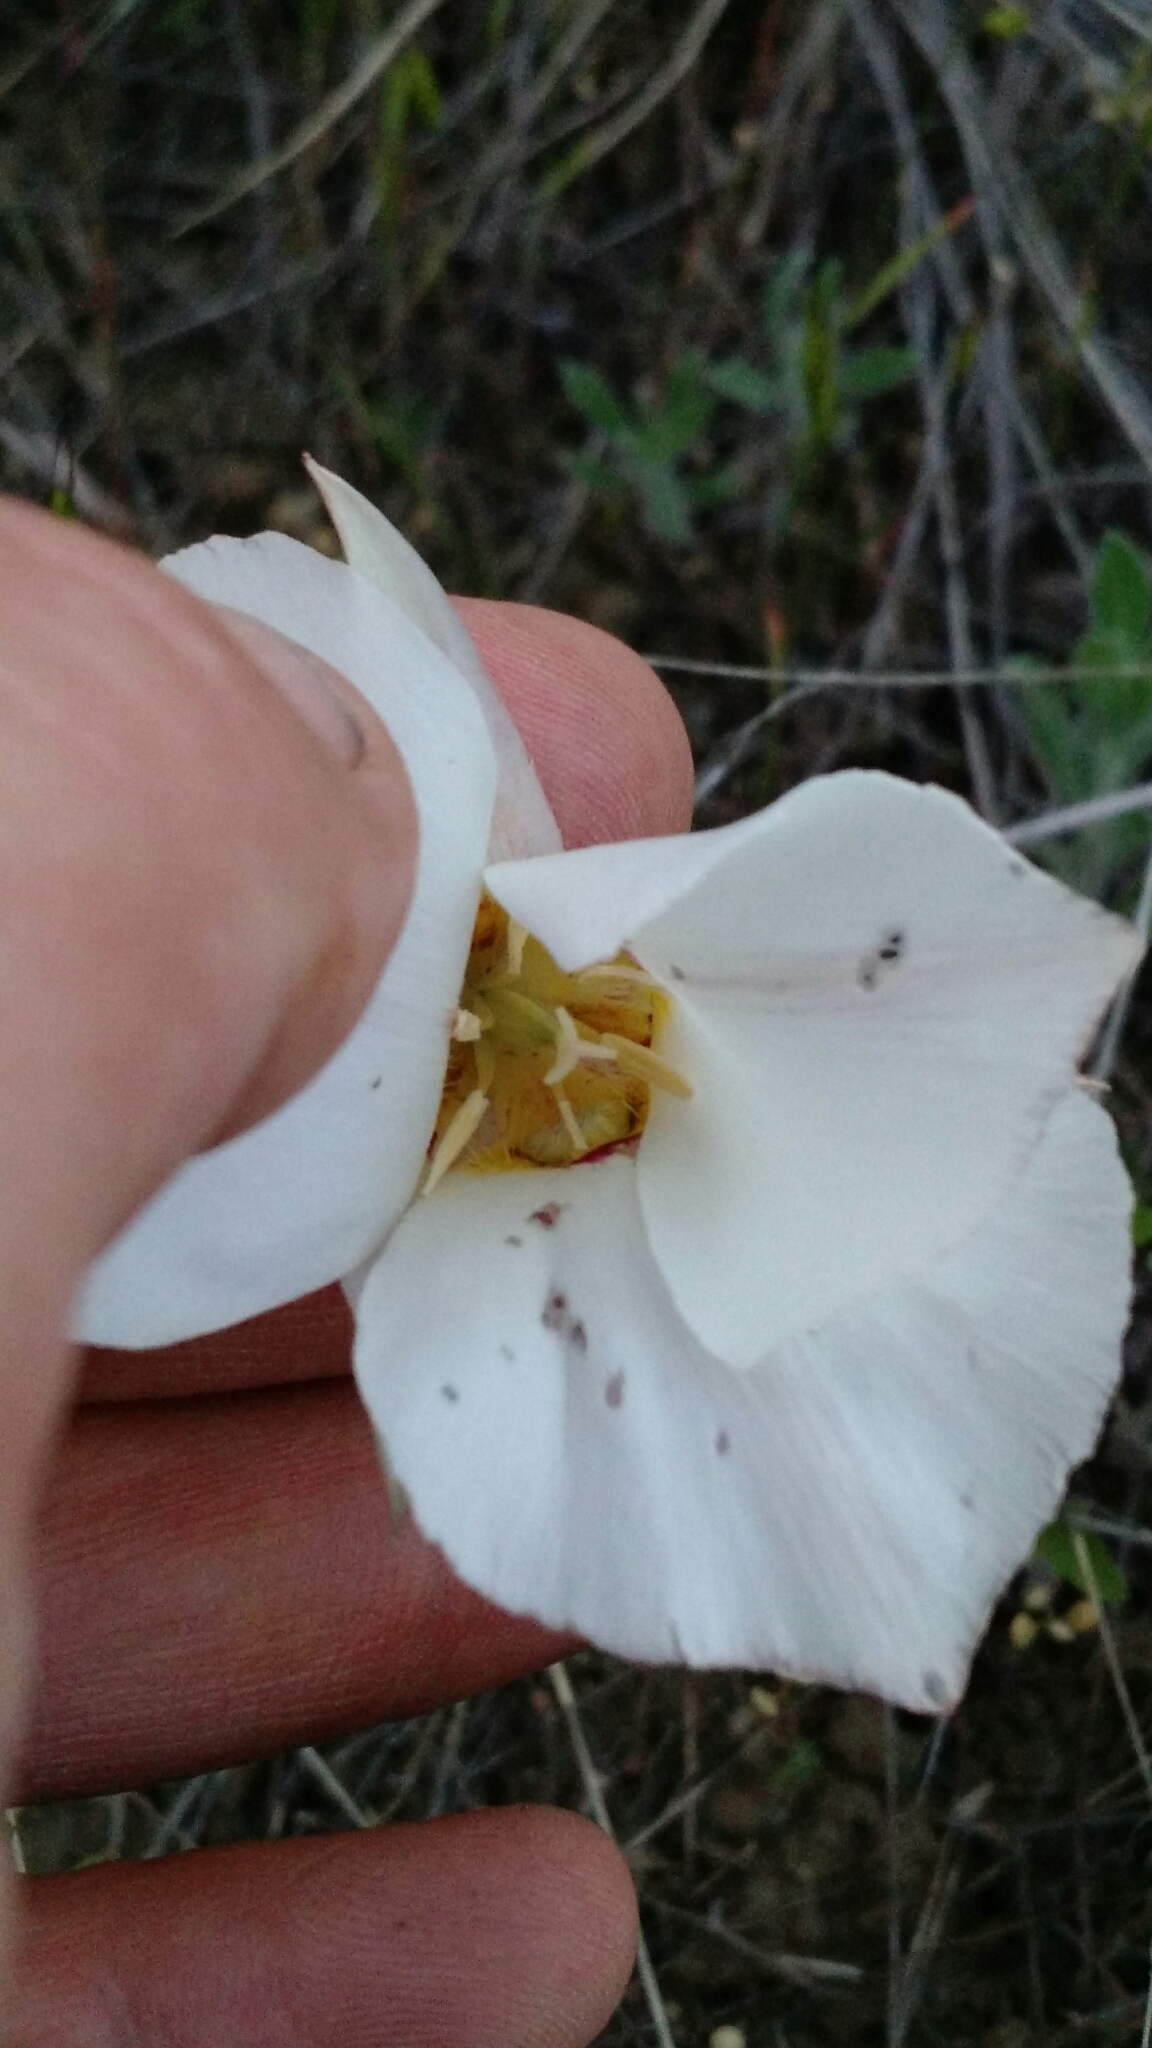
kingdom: Plantae
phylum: Tracheophyta
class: Liliopsida
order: Liliales
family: Liliaceae
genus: Calochortus
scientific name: Calochortus nuttallii
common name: Sego-lily
